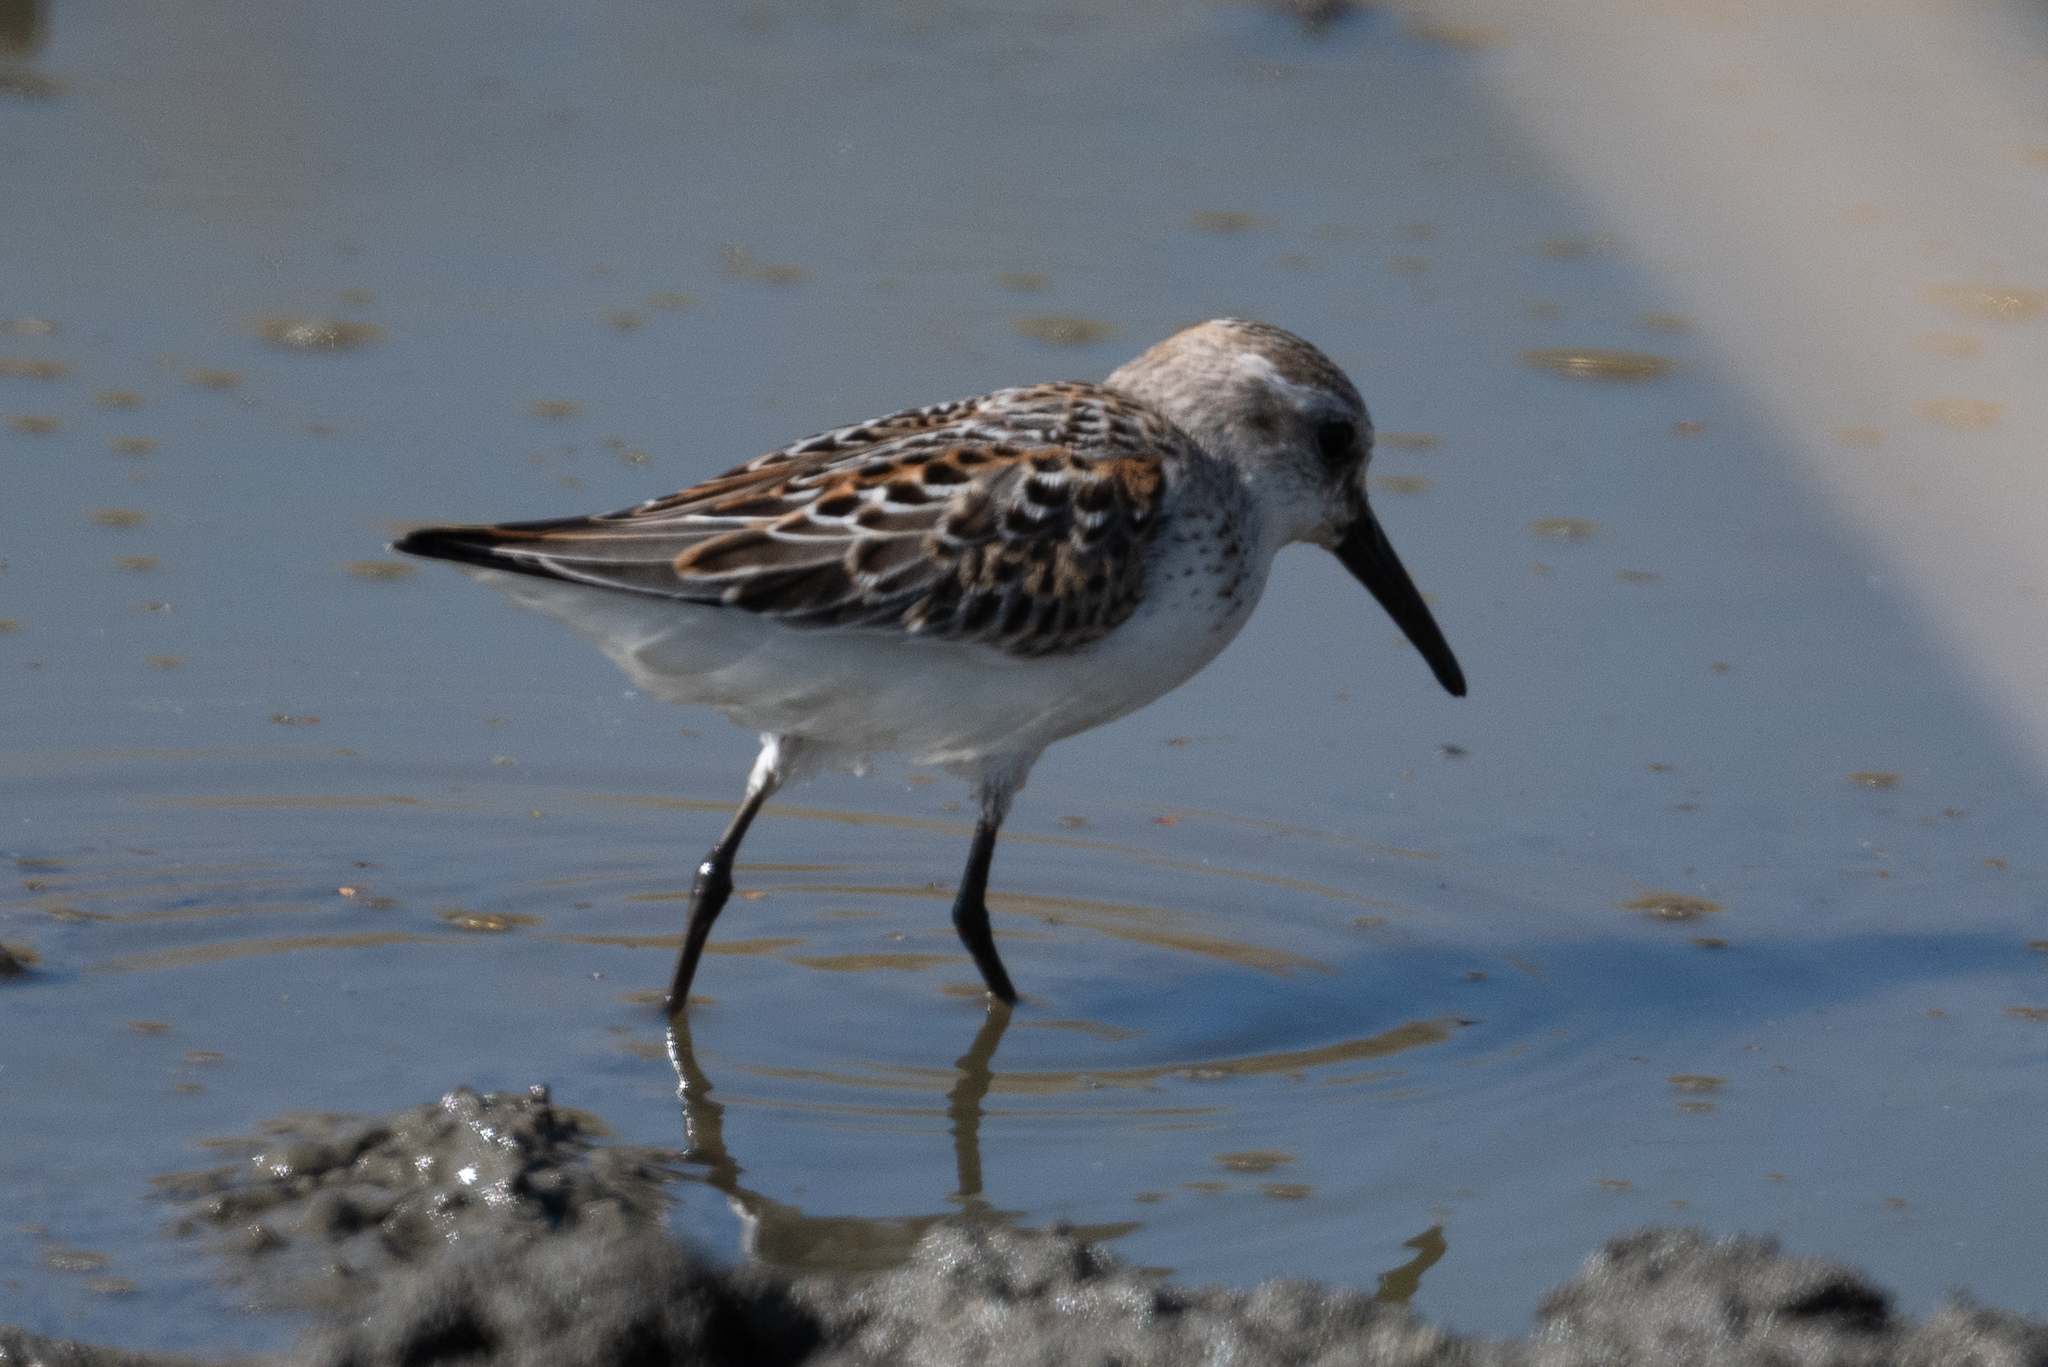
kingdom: Animalia
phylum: Chordata
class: Aves
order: Charadriiformes
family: Scolopacidae
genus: Calidris
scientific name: Calidris mauri
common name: Western sandpiper
